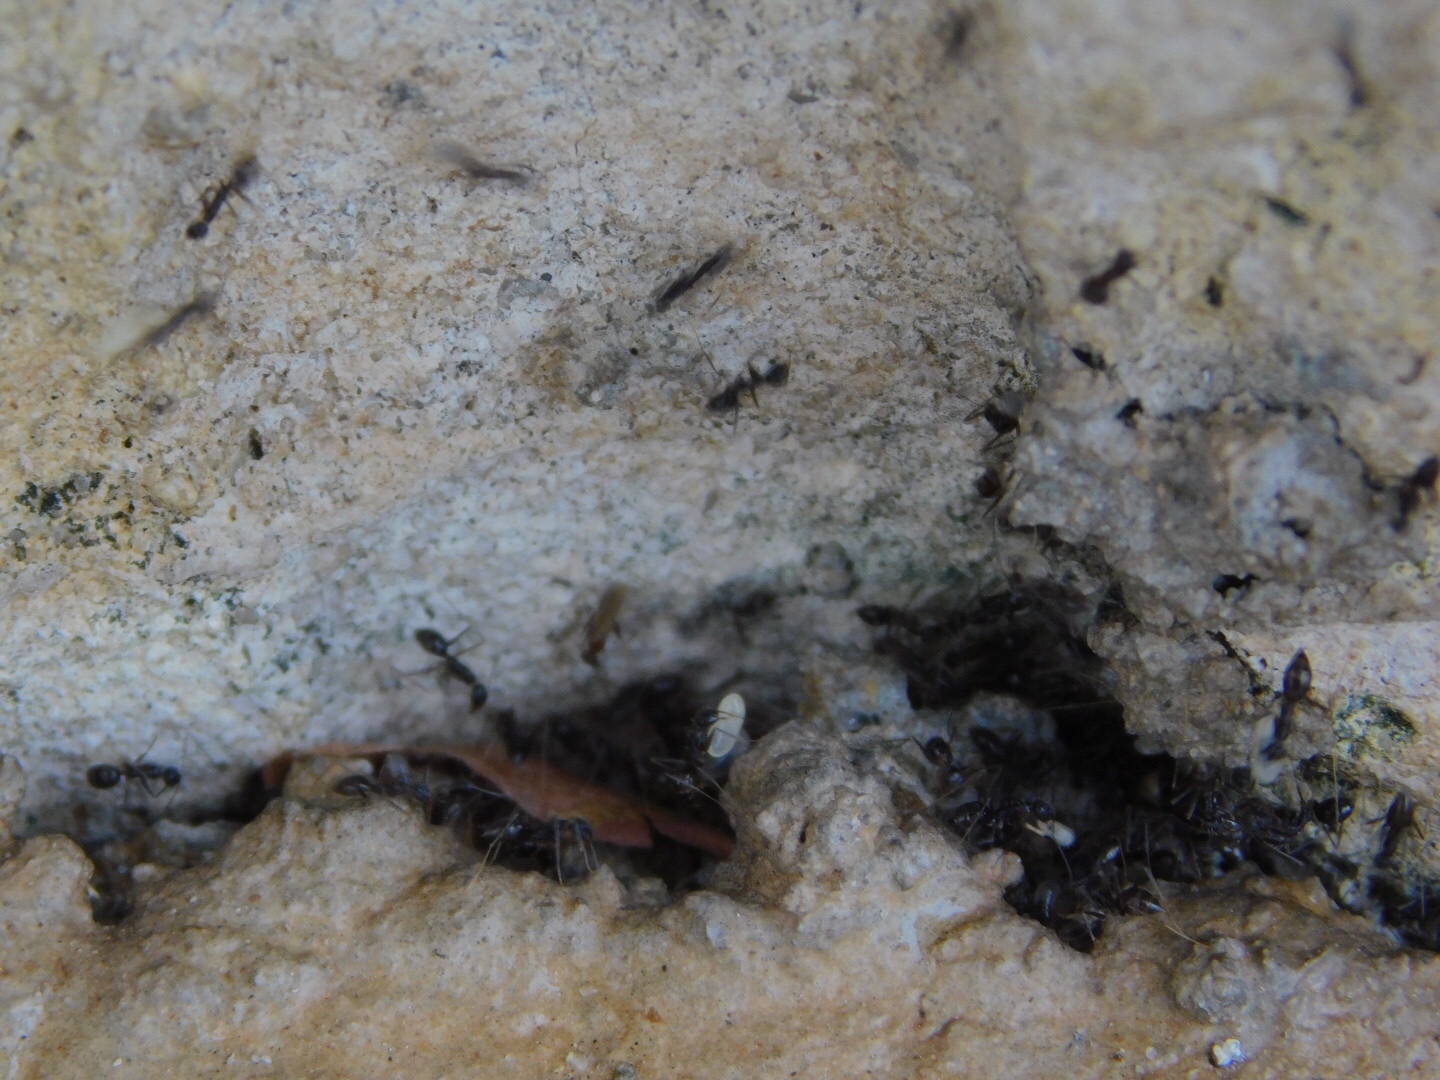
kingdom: Animalia
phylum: Arthropoda
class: Insecta
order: Hymenoptera
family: Formicidae
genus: Paratrechina
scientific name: Paratrechina longicornis
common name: Longhorned crazy ant
